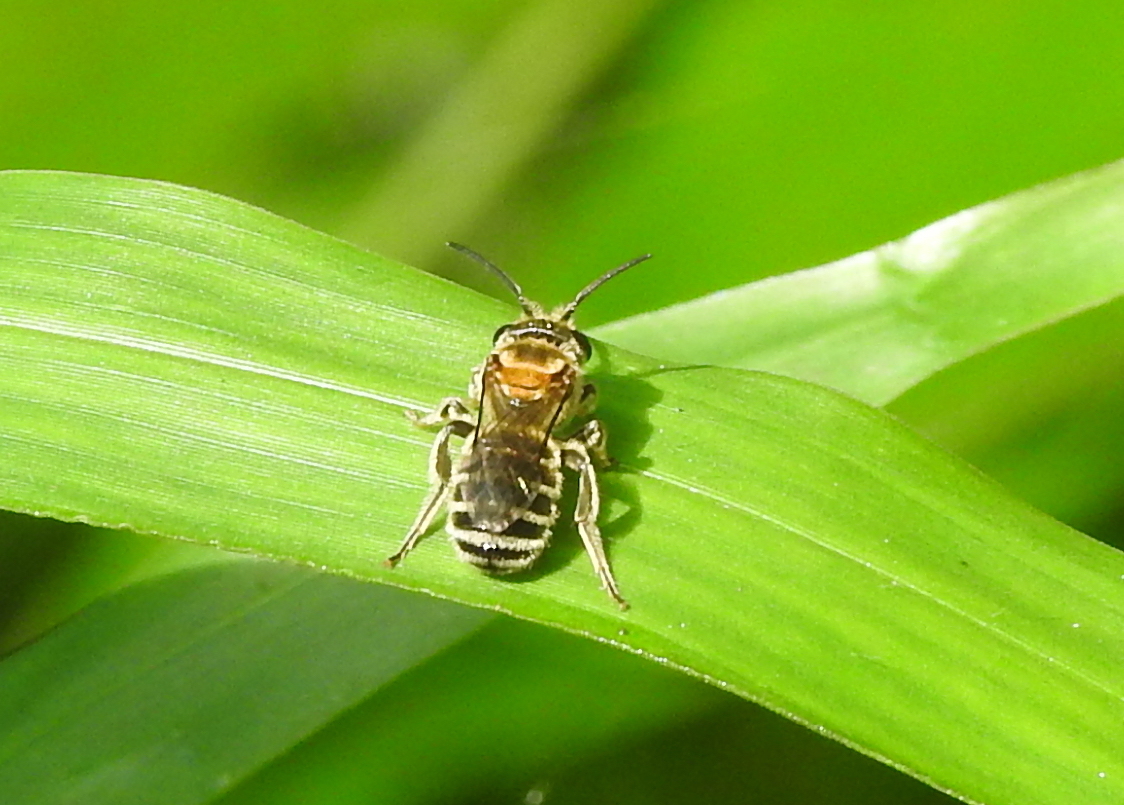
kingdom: Animalia
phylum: Arthropoda
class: Insecta
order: Hymenoptera
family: Halictidae
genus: Lipotriches
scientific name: Lipotriches takauensis
